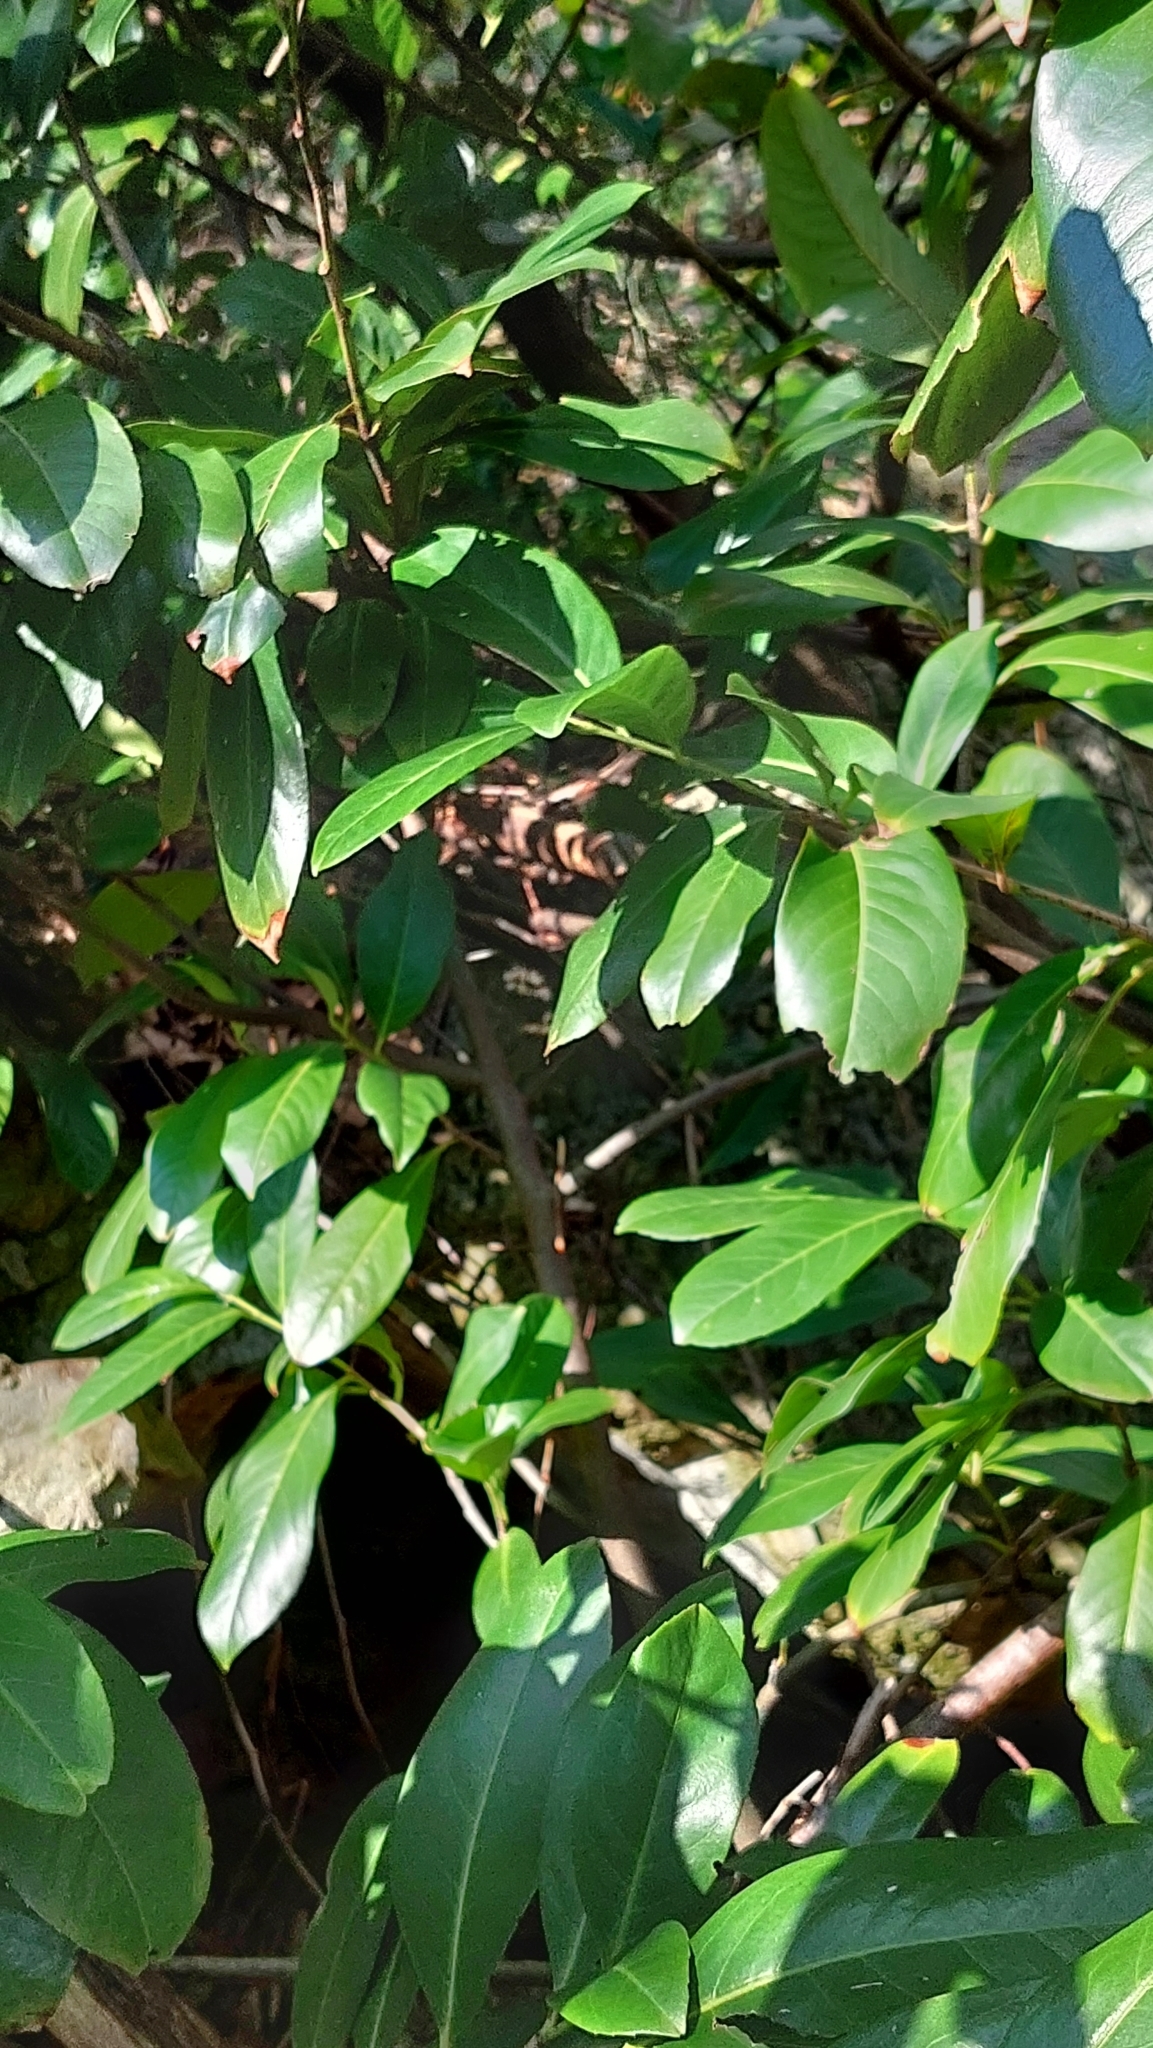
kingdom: Plantae
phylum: Tracheophyta
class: Magnoliopsida
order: Rosales
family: Rosaceae
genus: Prunus
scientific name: Prunus laurocerasus
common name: Cherry laurel
